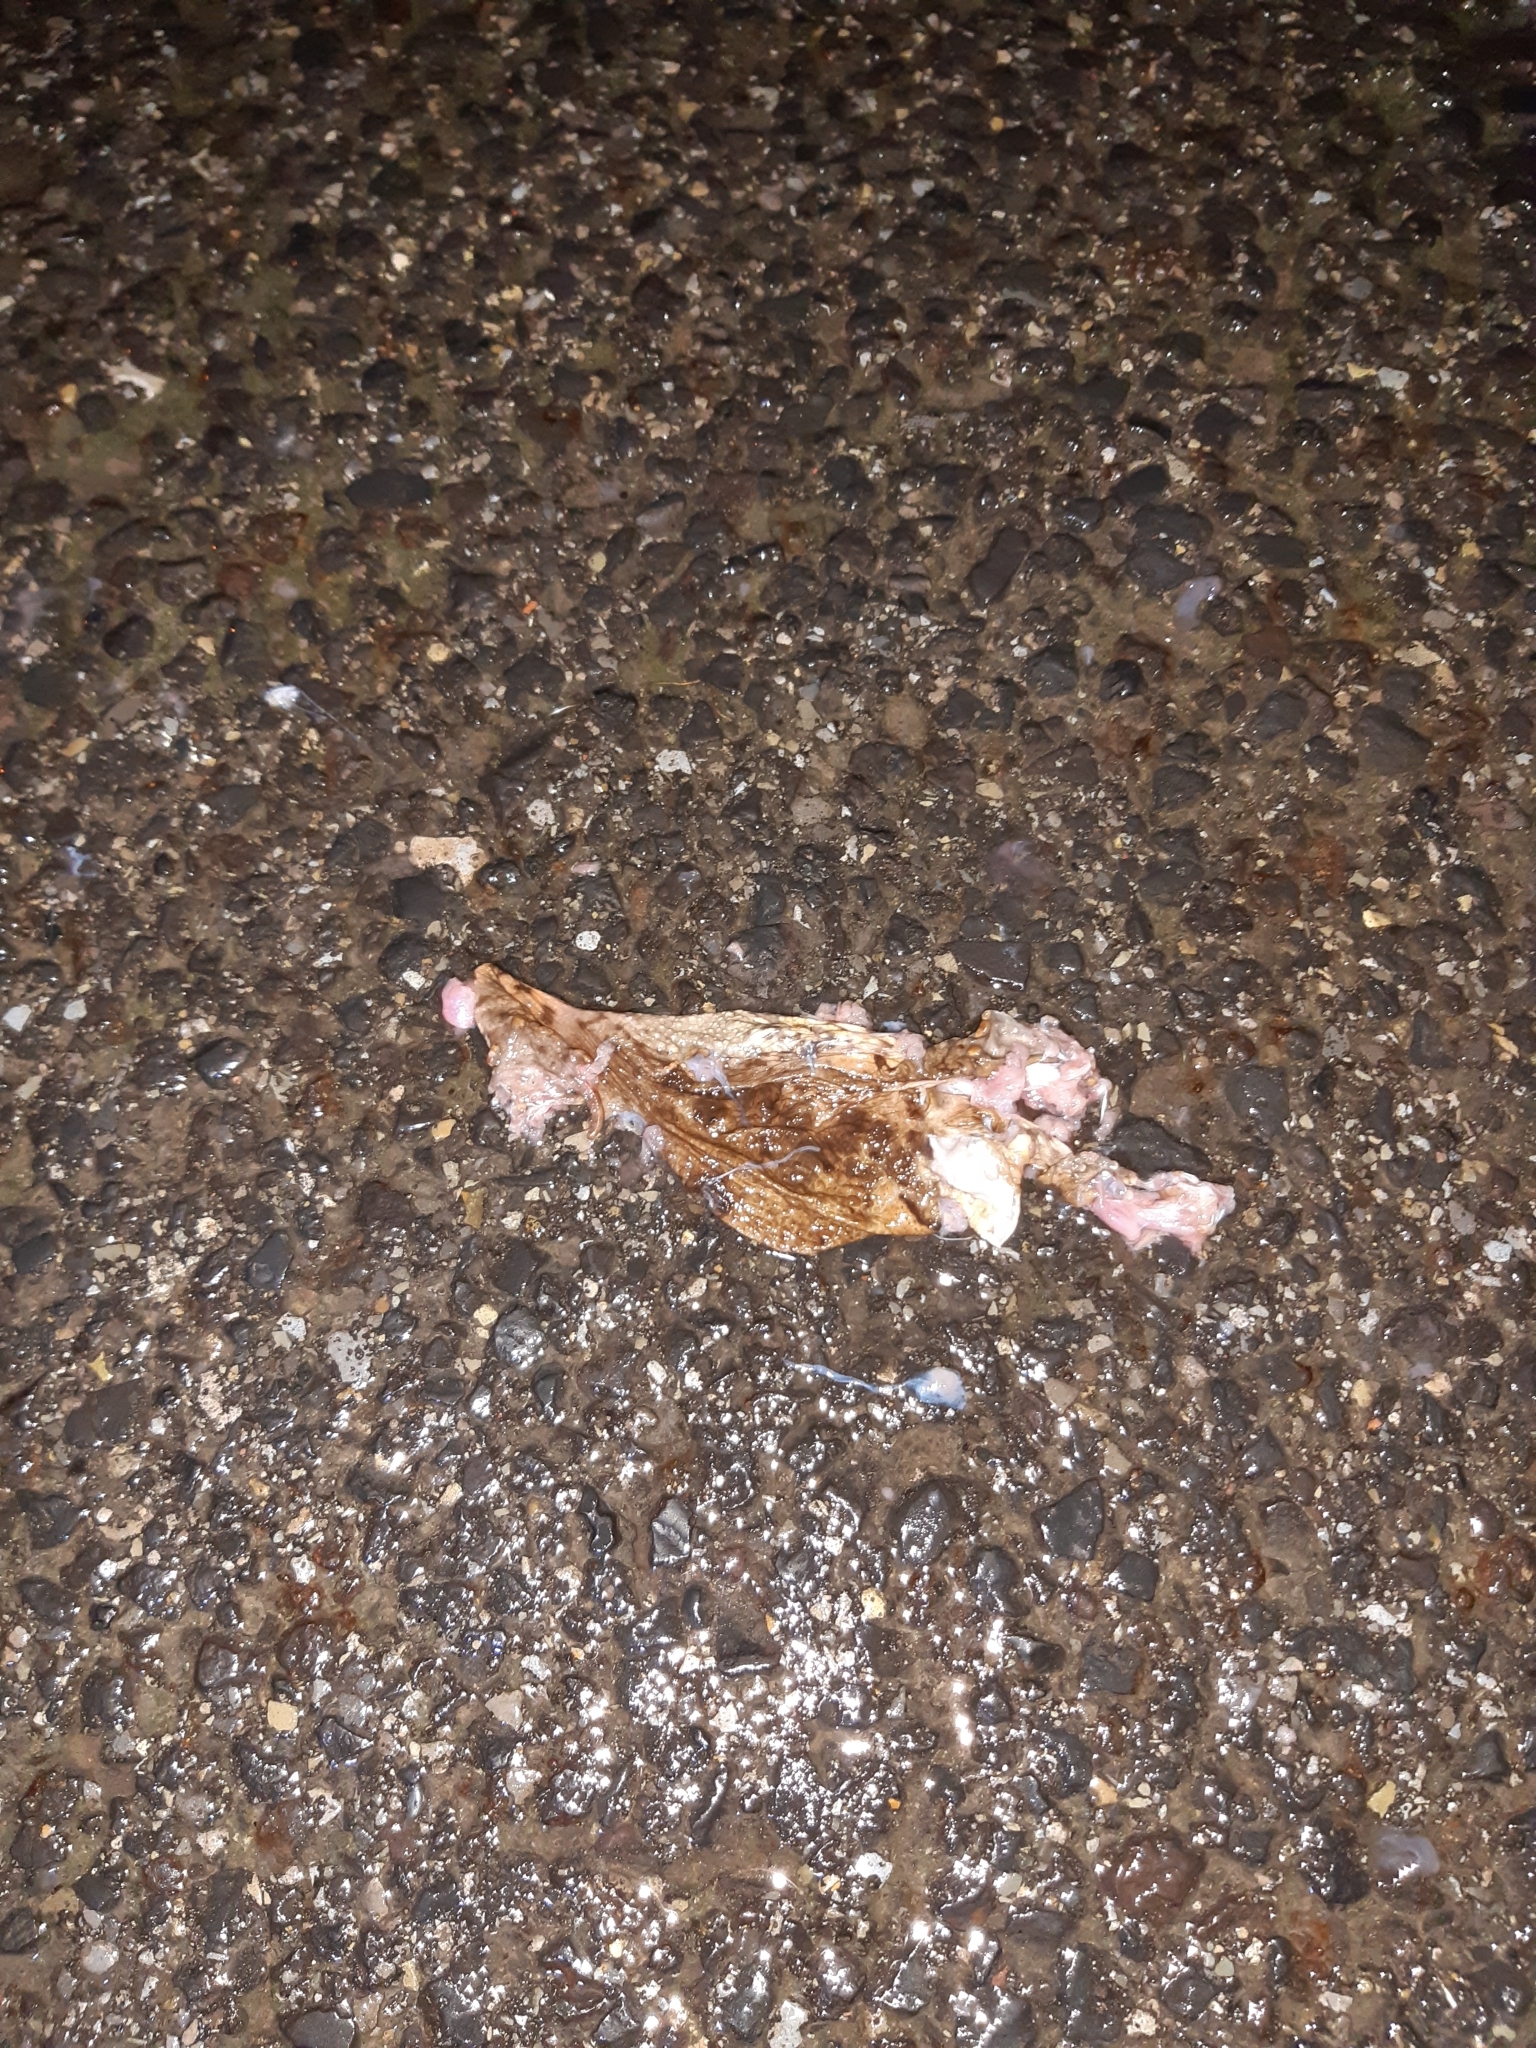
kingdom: Animalia
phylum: Chordata
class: Amphibia
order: Anura
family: Bufonidae
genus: Bufo
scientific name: Bufo bufo
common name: Common toad
